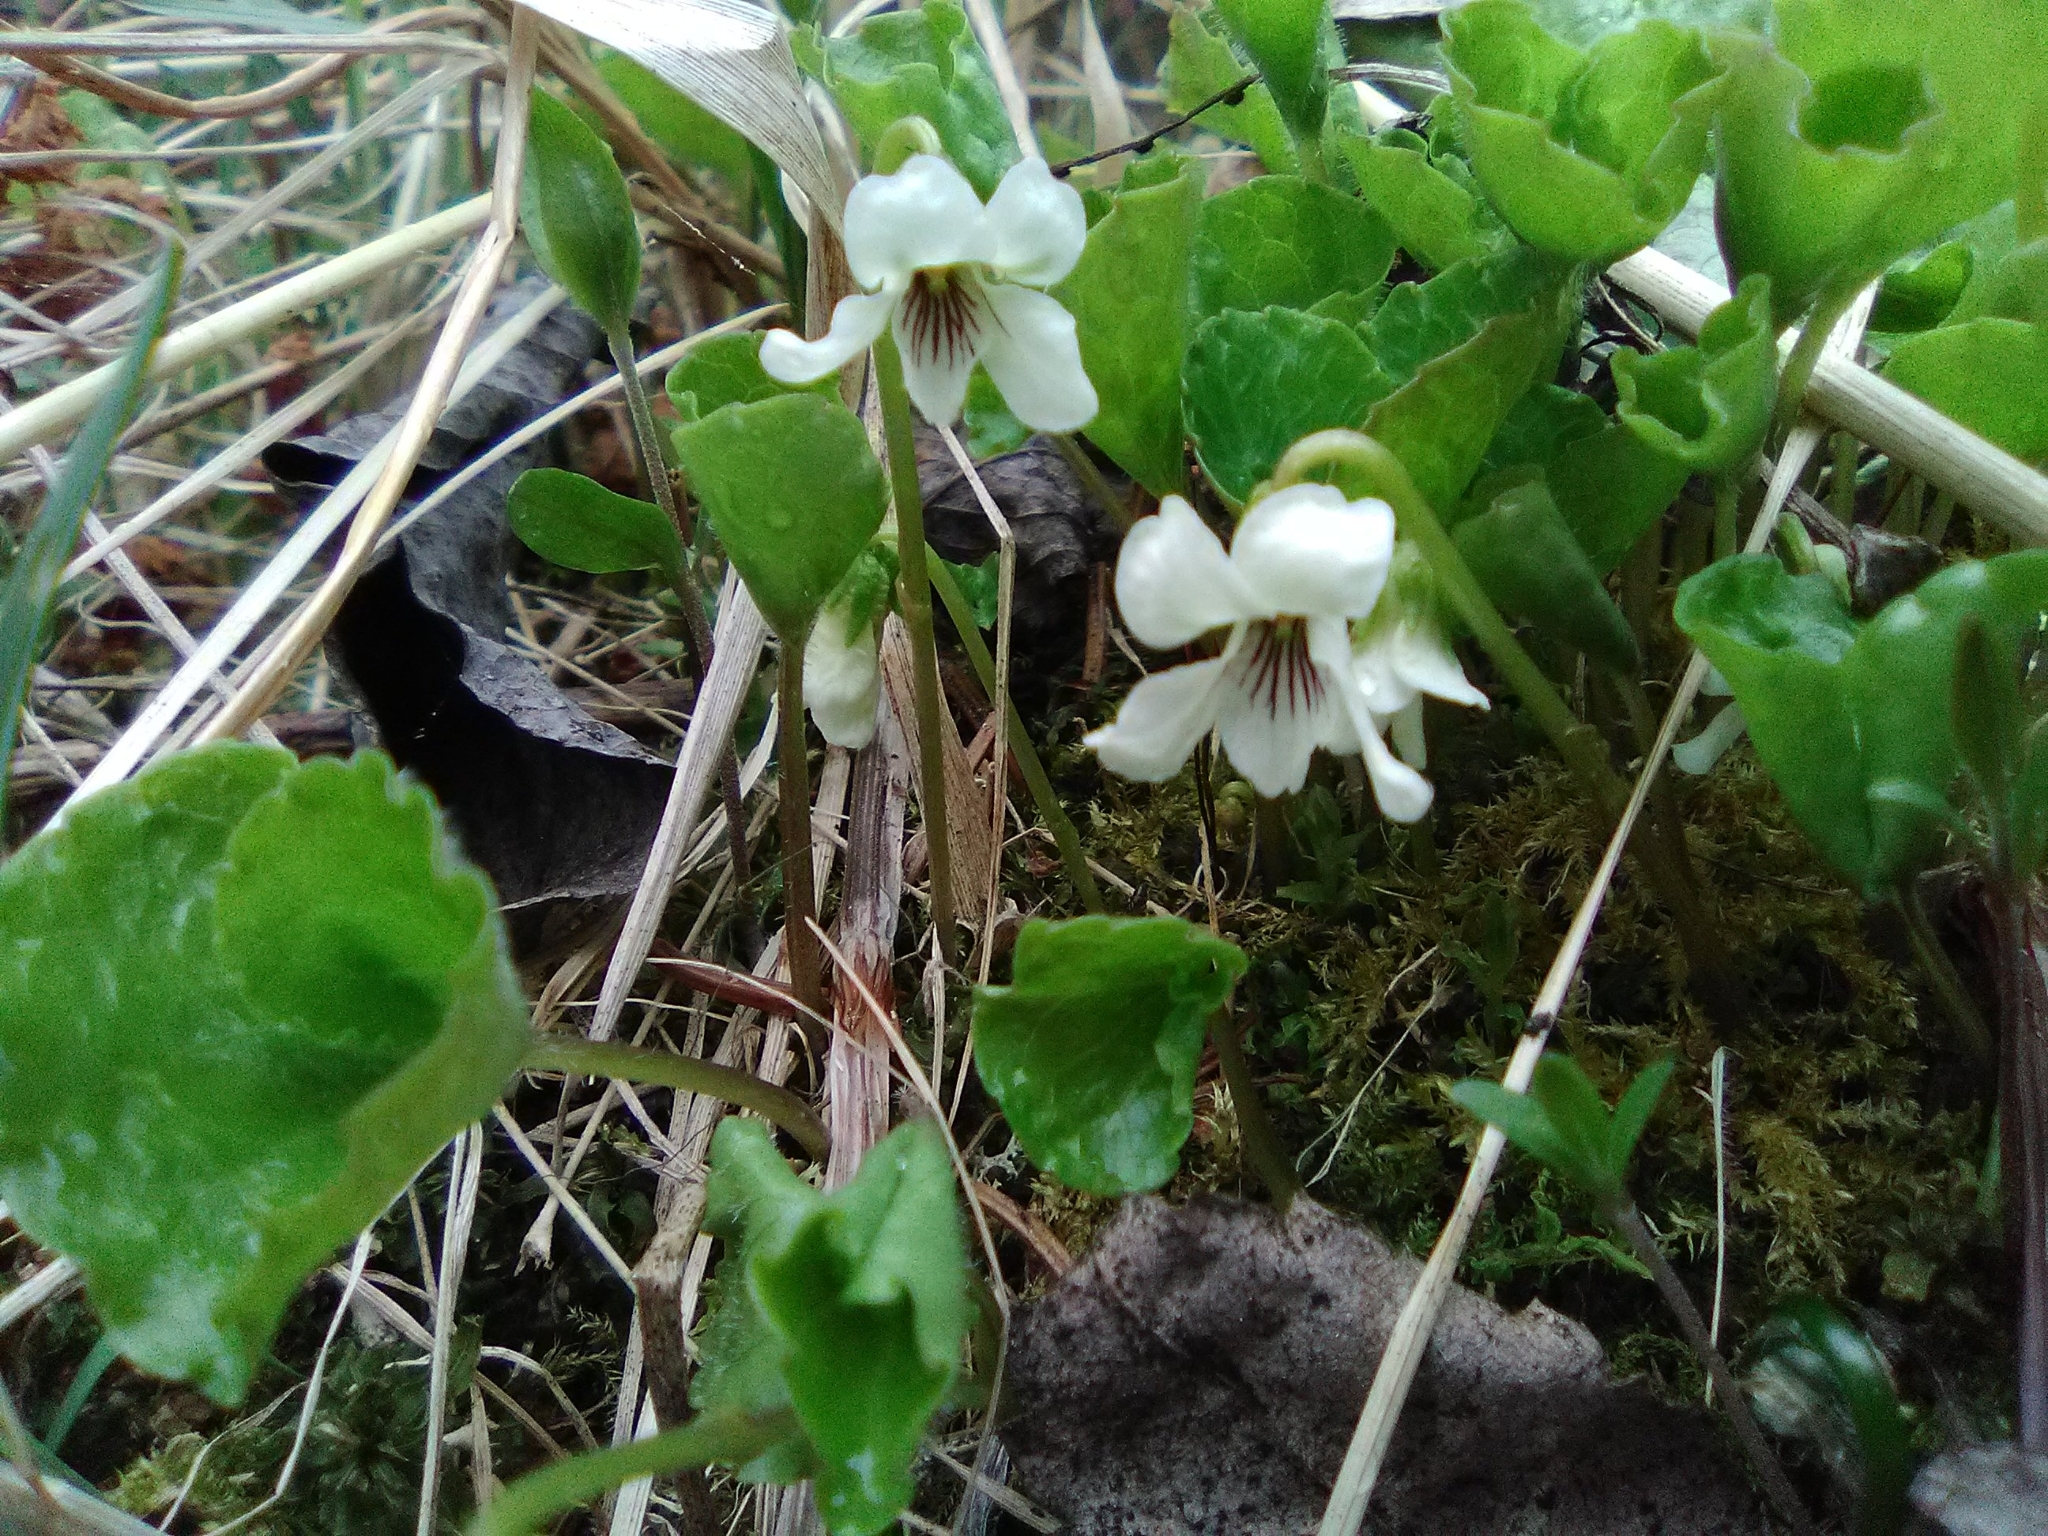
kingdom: Plantae
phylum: Tracheophyta
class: Magnoliopsida
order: Malpighiales
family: Violaceae
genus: Viola
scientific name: Viola renifolia
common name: Kidney-leaf violet
